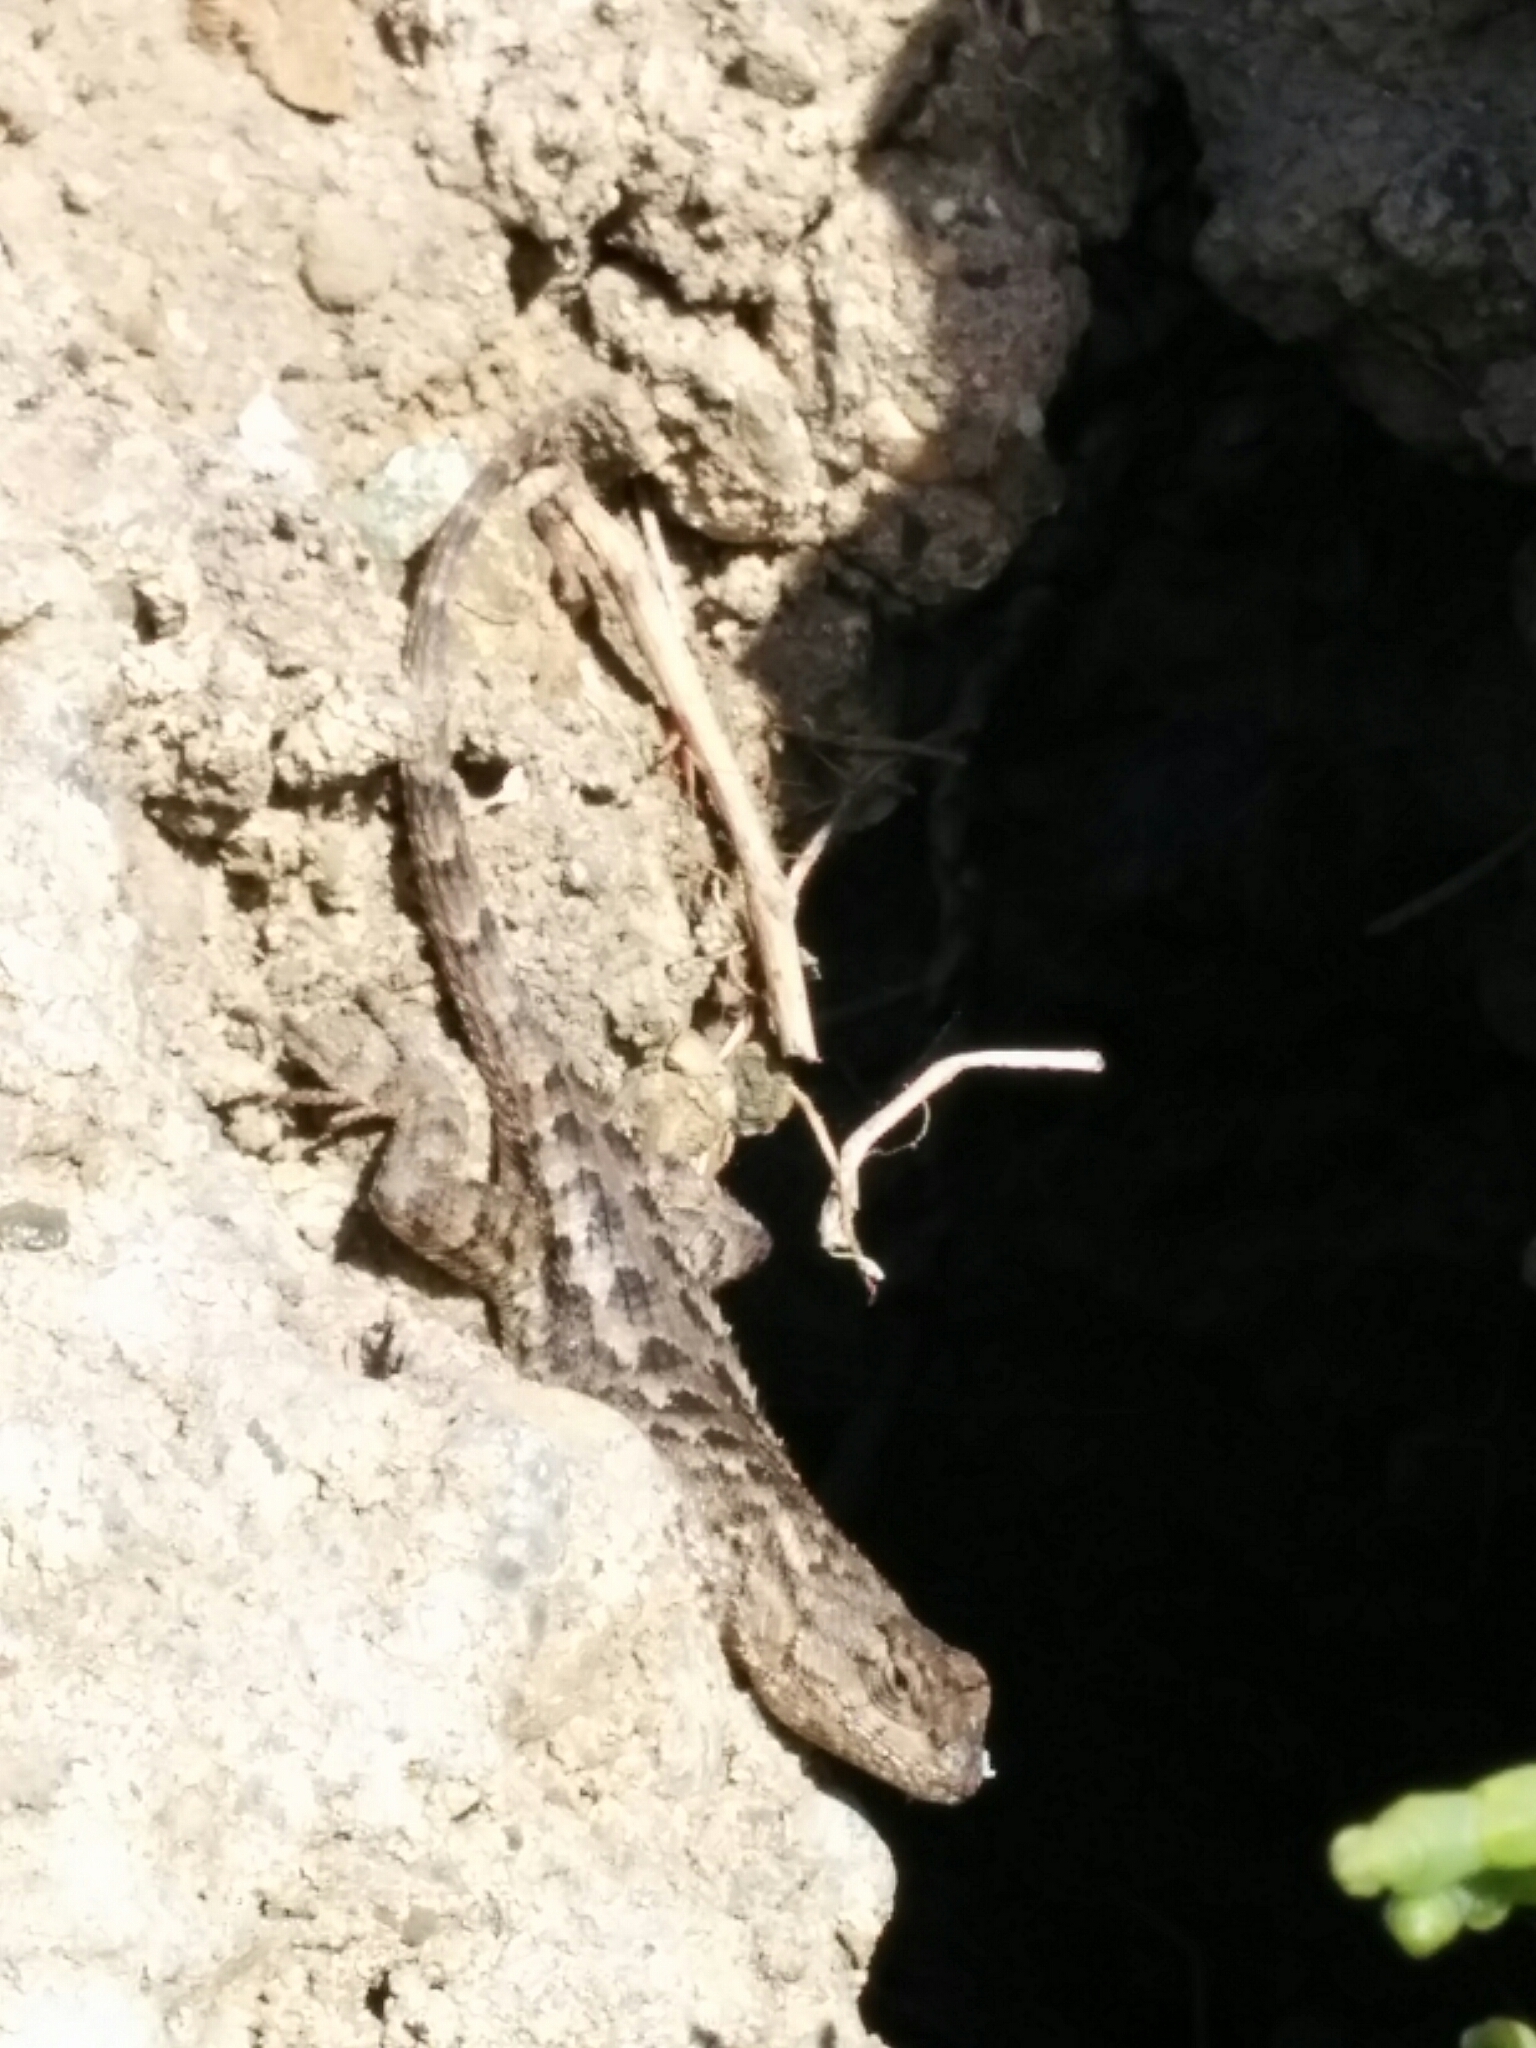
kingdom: Animalia
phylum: Chordata
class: Squamata
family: Phrynosomatidae
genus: Sceloporus
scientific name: Sceloporus occidentalis
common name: Western fence lizard
